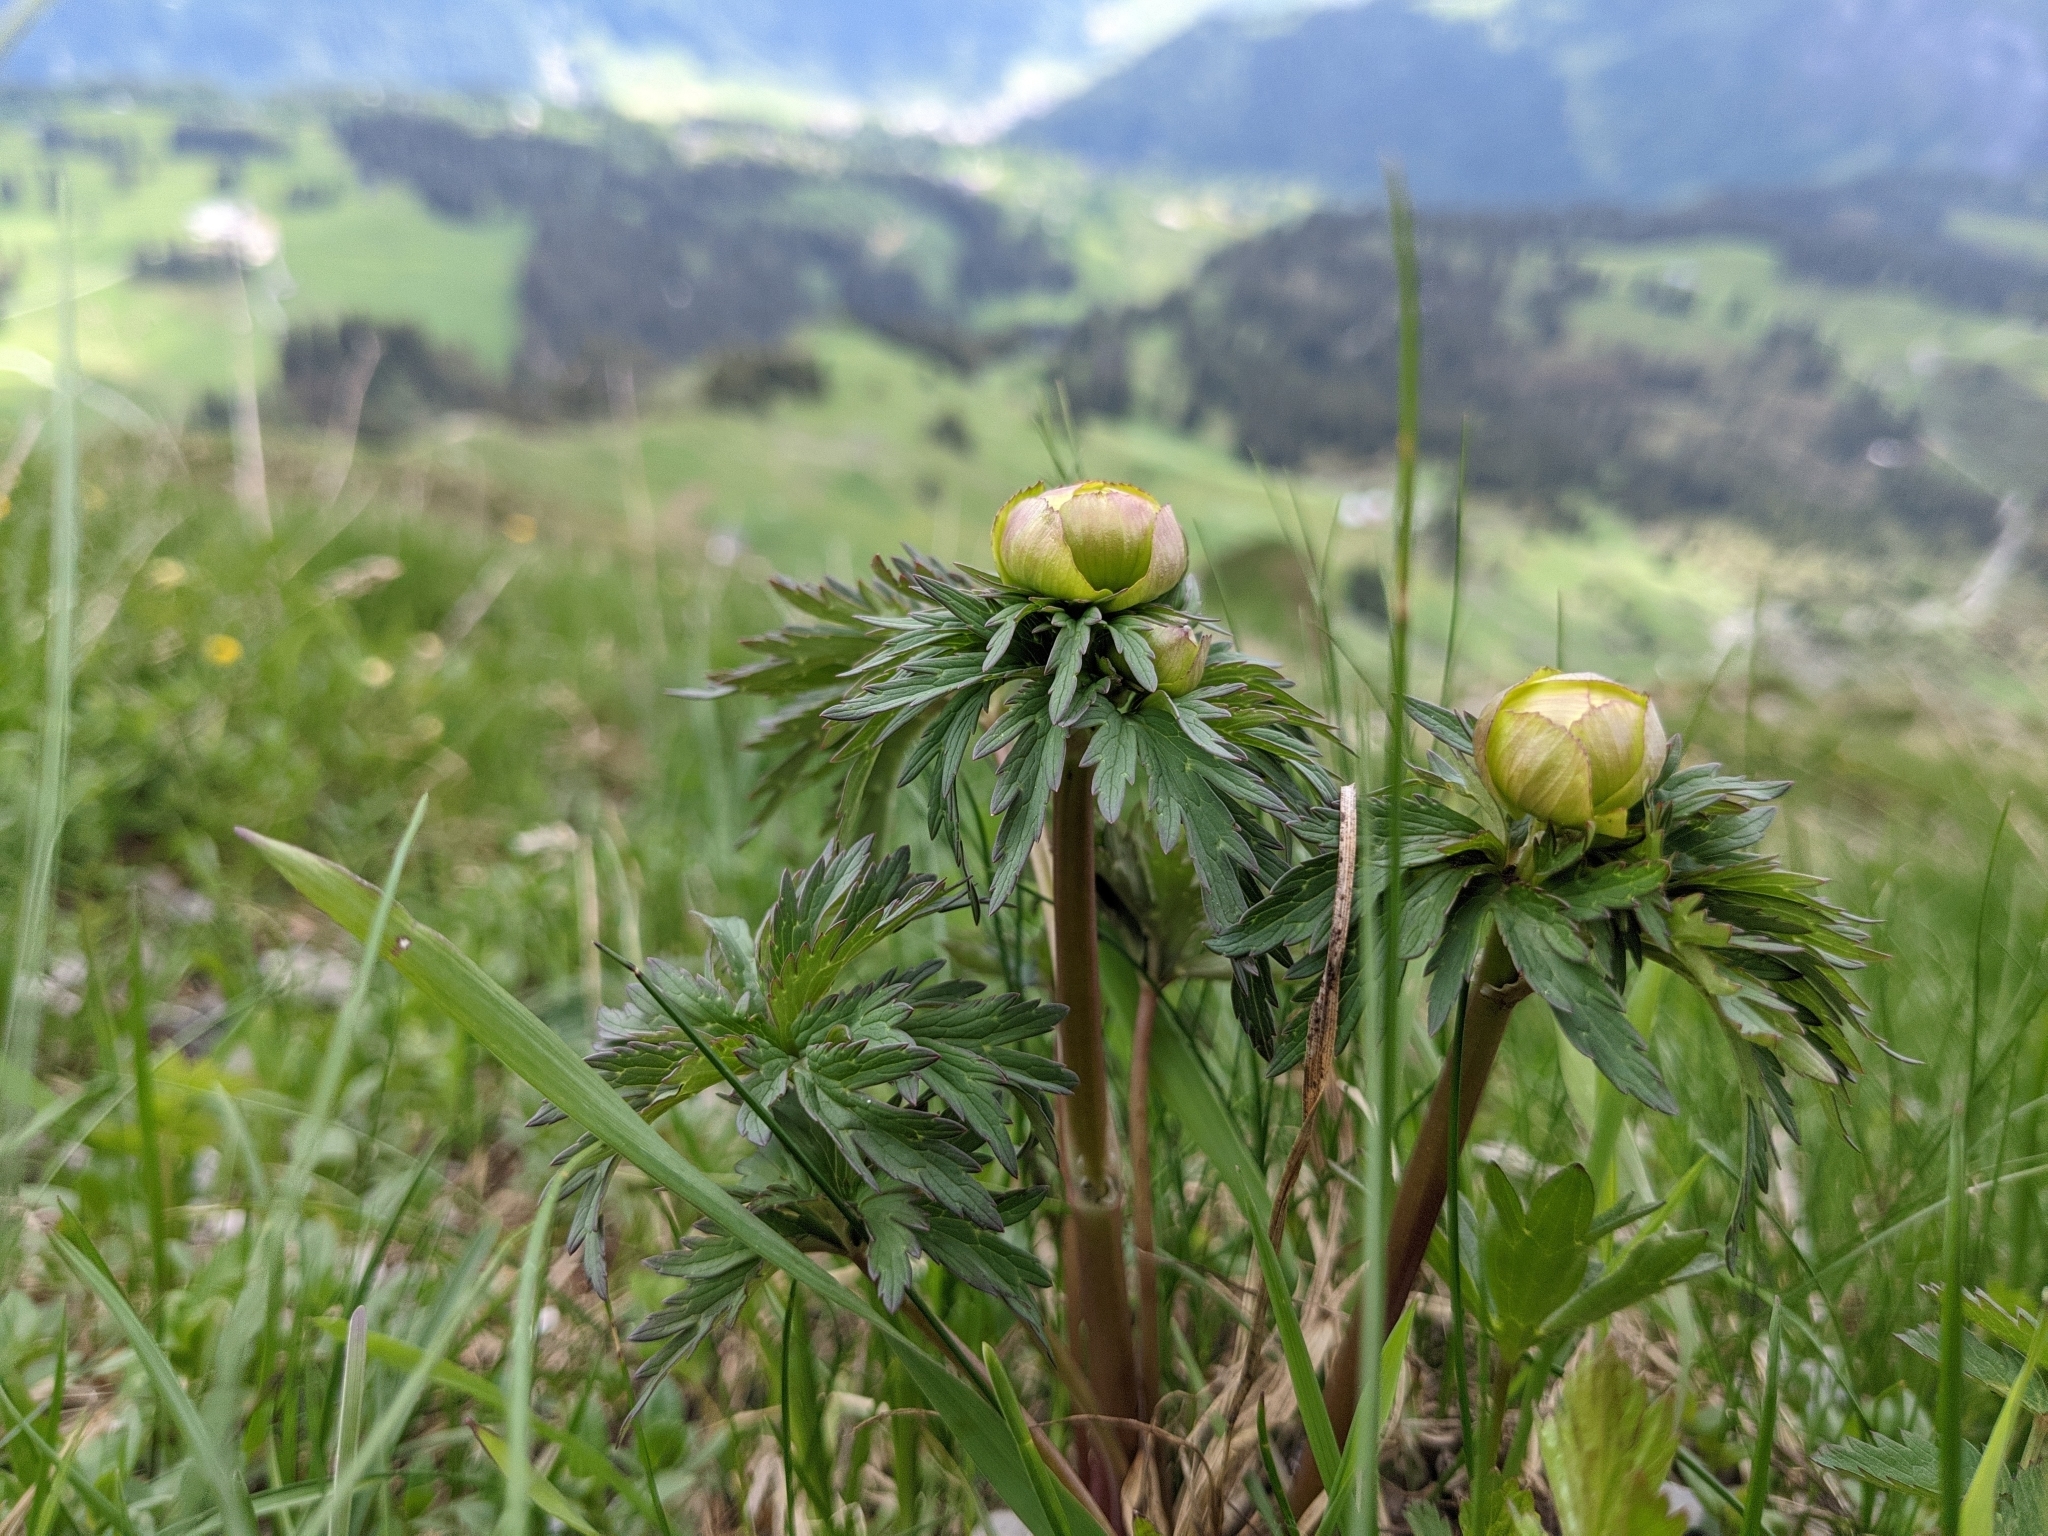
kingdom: Plantae
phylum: Tracheophyta
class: Magnoliopsida
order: Ranunculales
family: Ranunculaceae
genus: Trollius
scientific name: Trollius europaeus
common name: European globeflower
